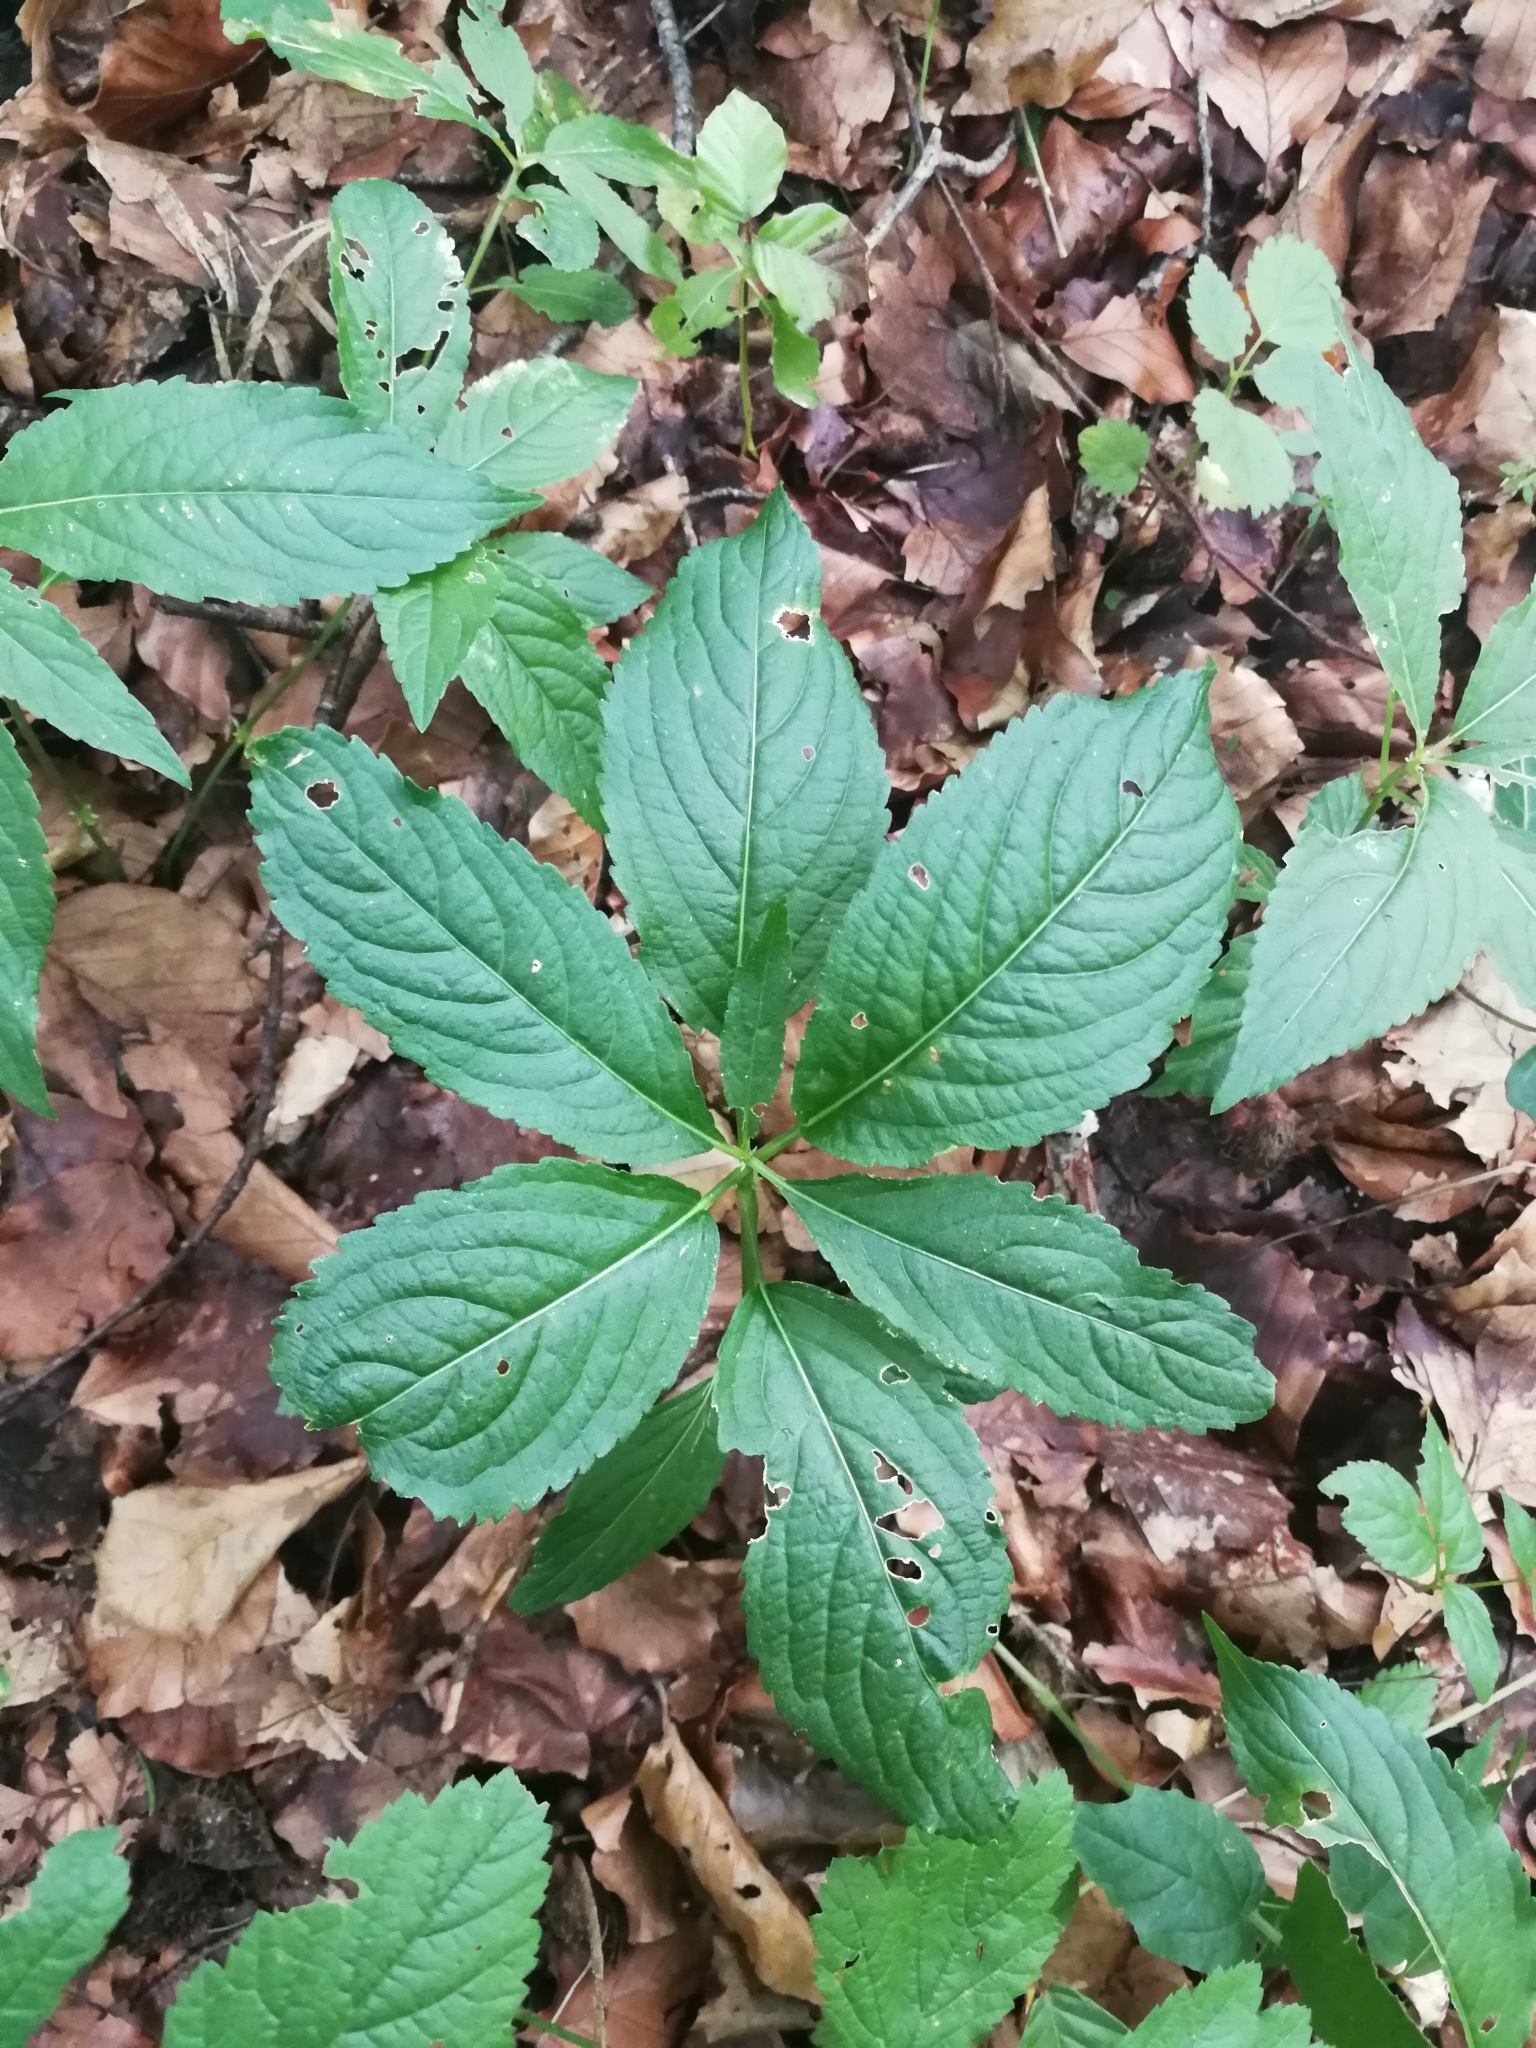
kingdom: Plantae
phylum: Tracheophyta
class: Magnoliopsida
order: Malpighiales
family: Euphorbiaceae
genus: Mercurialis
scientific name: Mercurialis perennis
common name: Dog mercury
